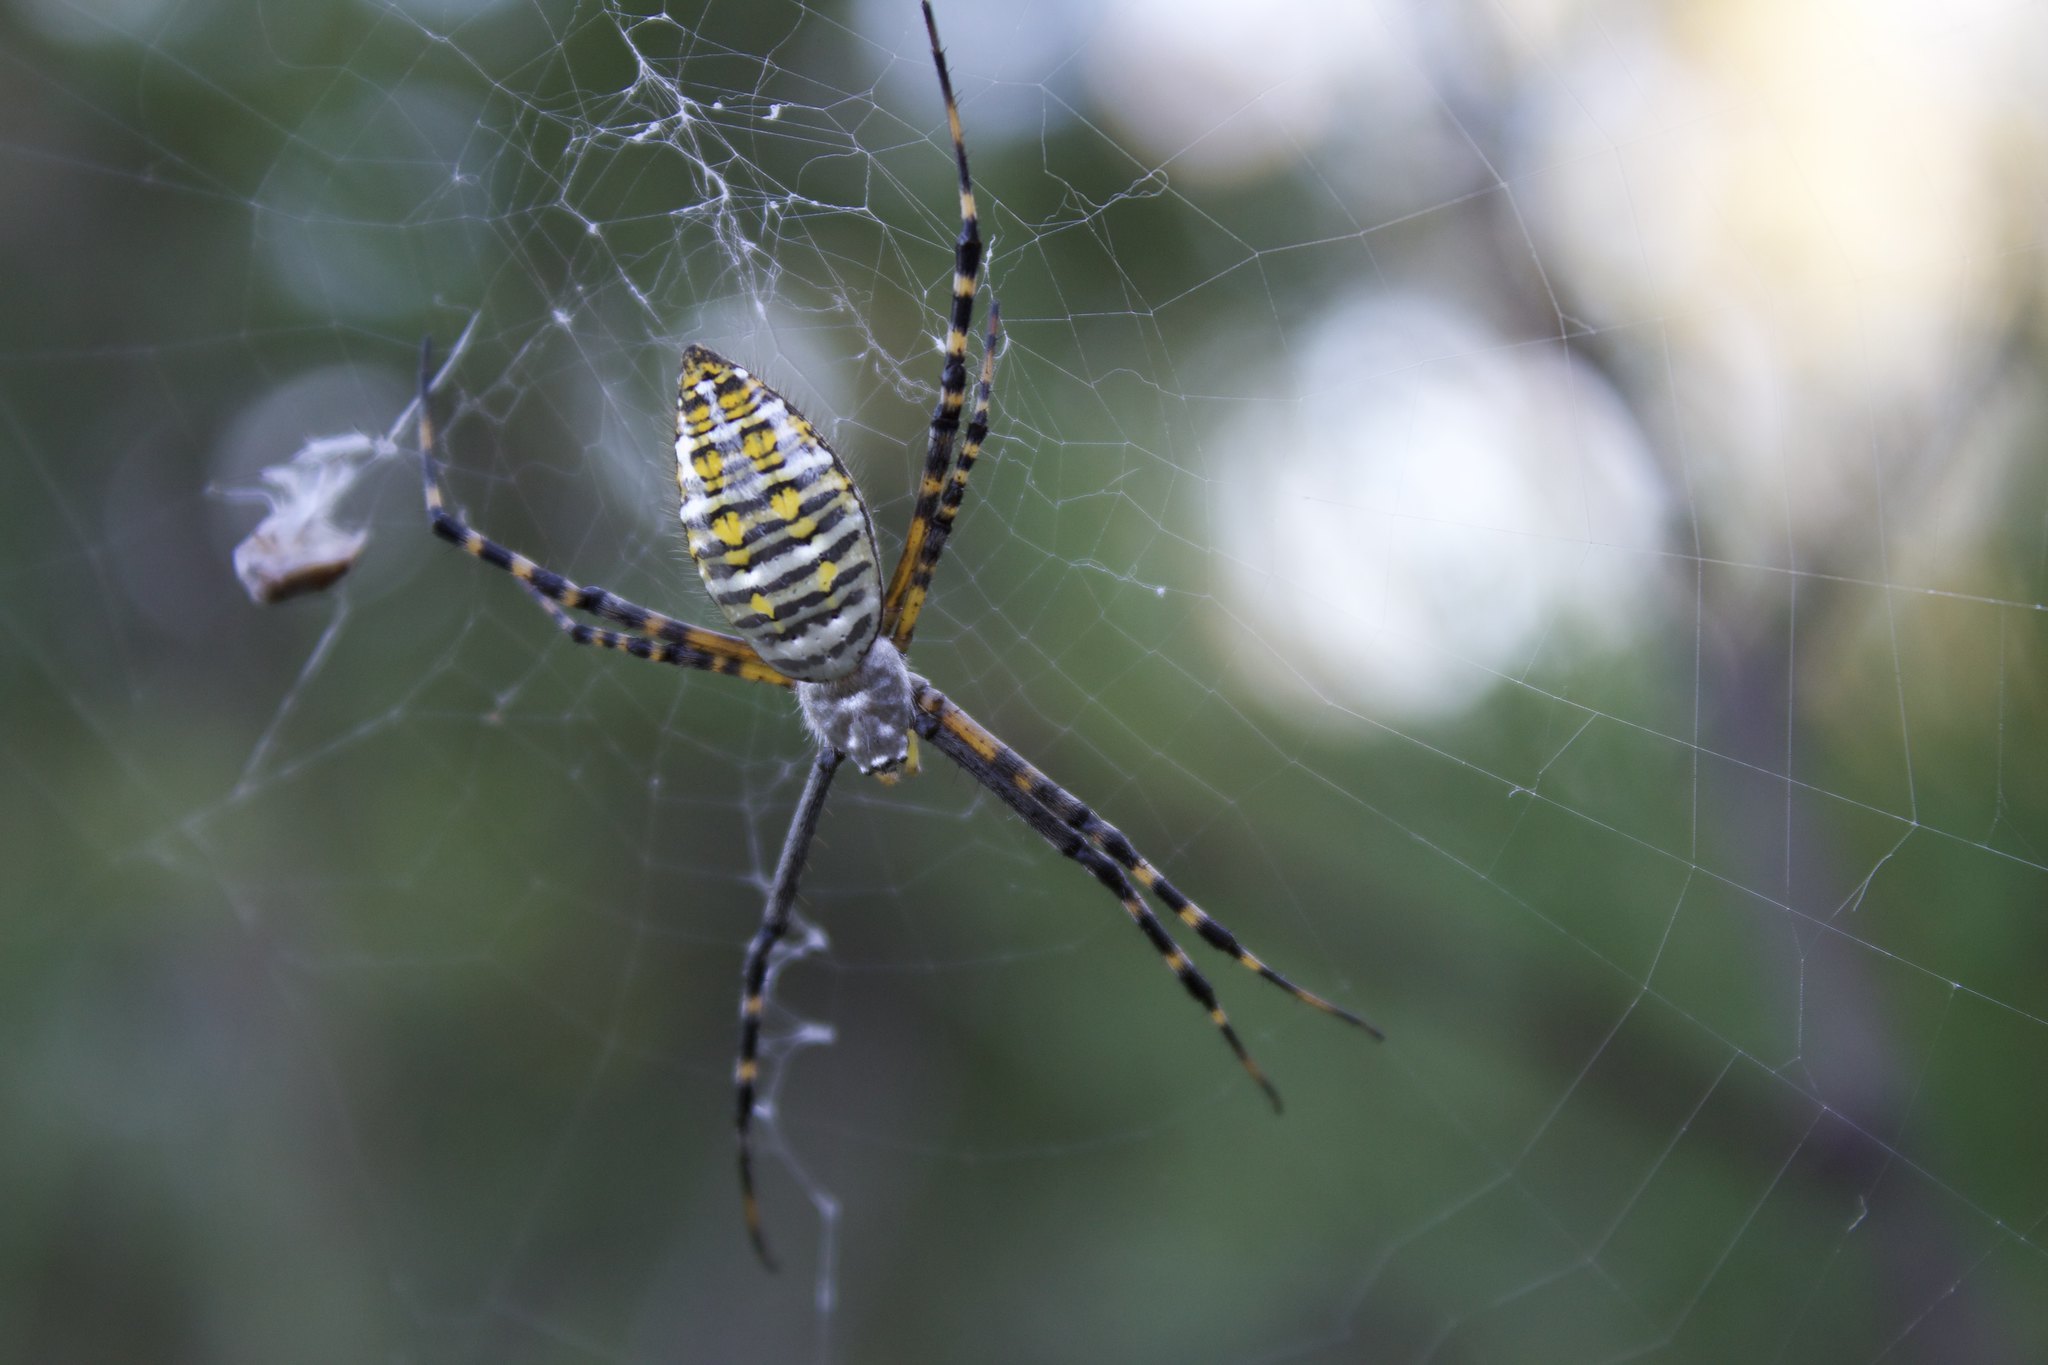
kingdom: Animalia
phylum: Arthropoda
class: Arachnida
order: Araneae
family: Araneidae
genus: Argiope
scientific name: Argiope trifasciata
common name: Banded garden spider
